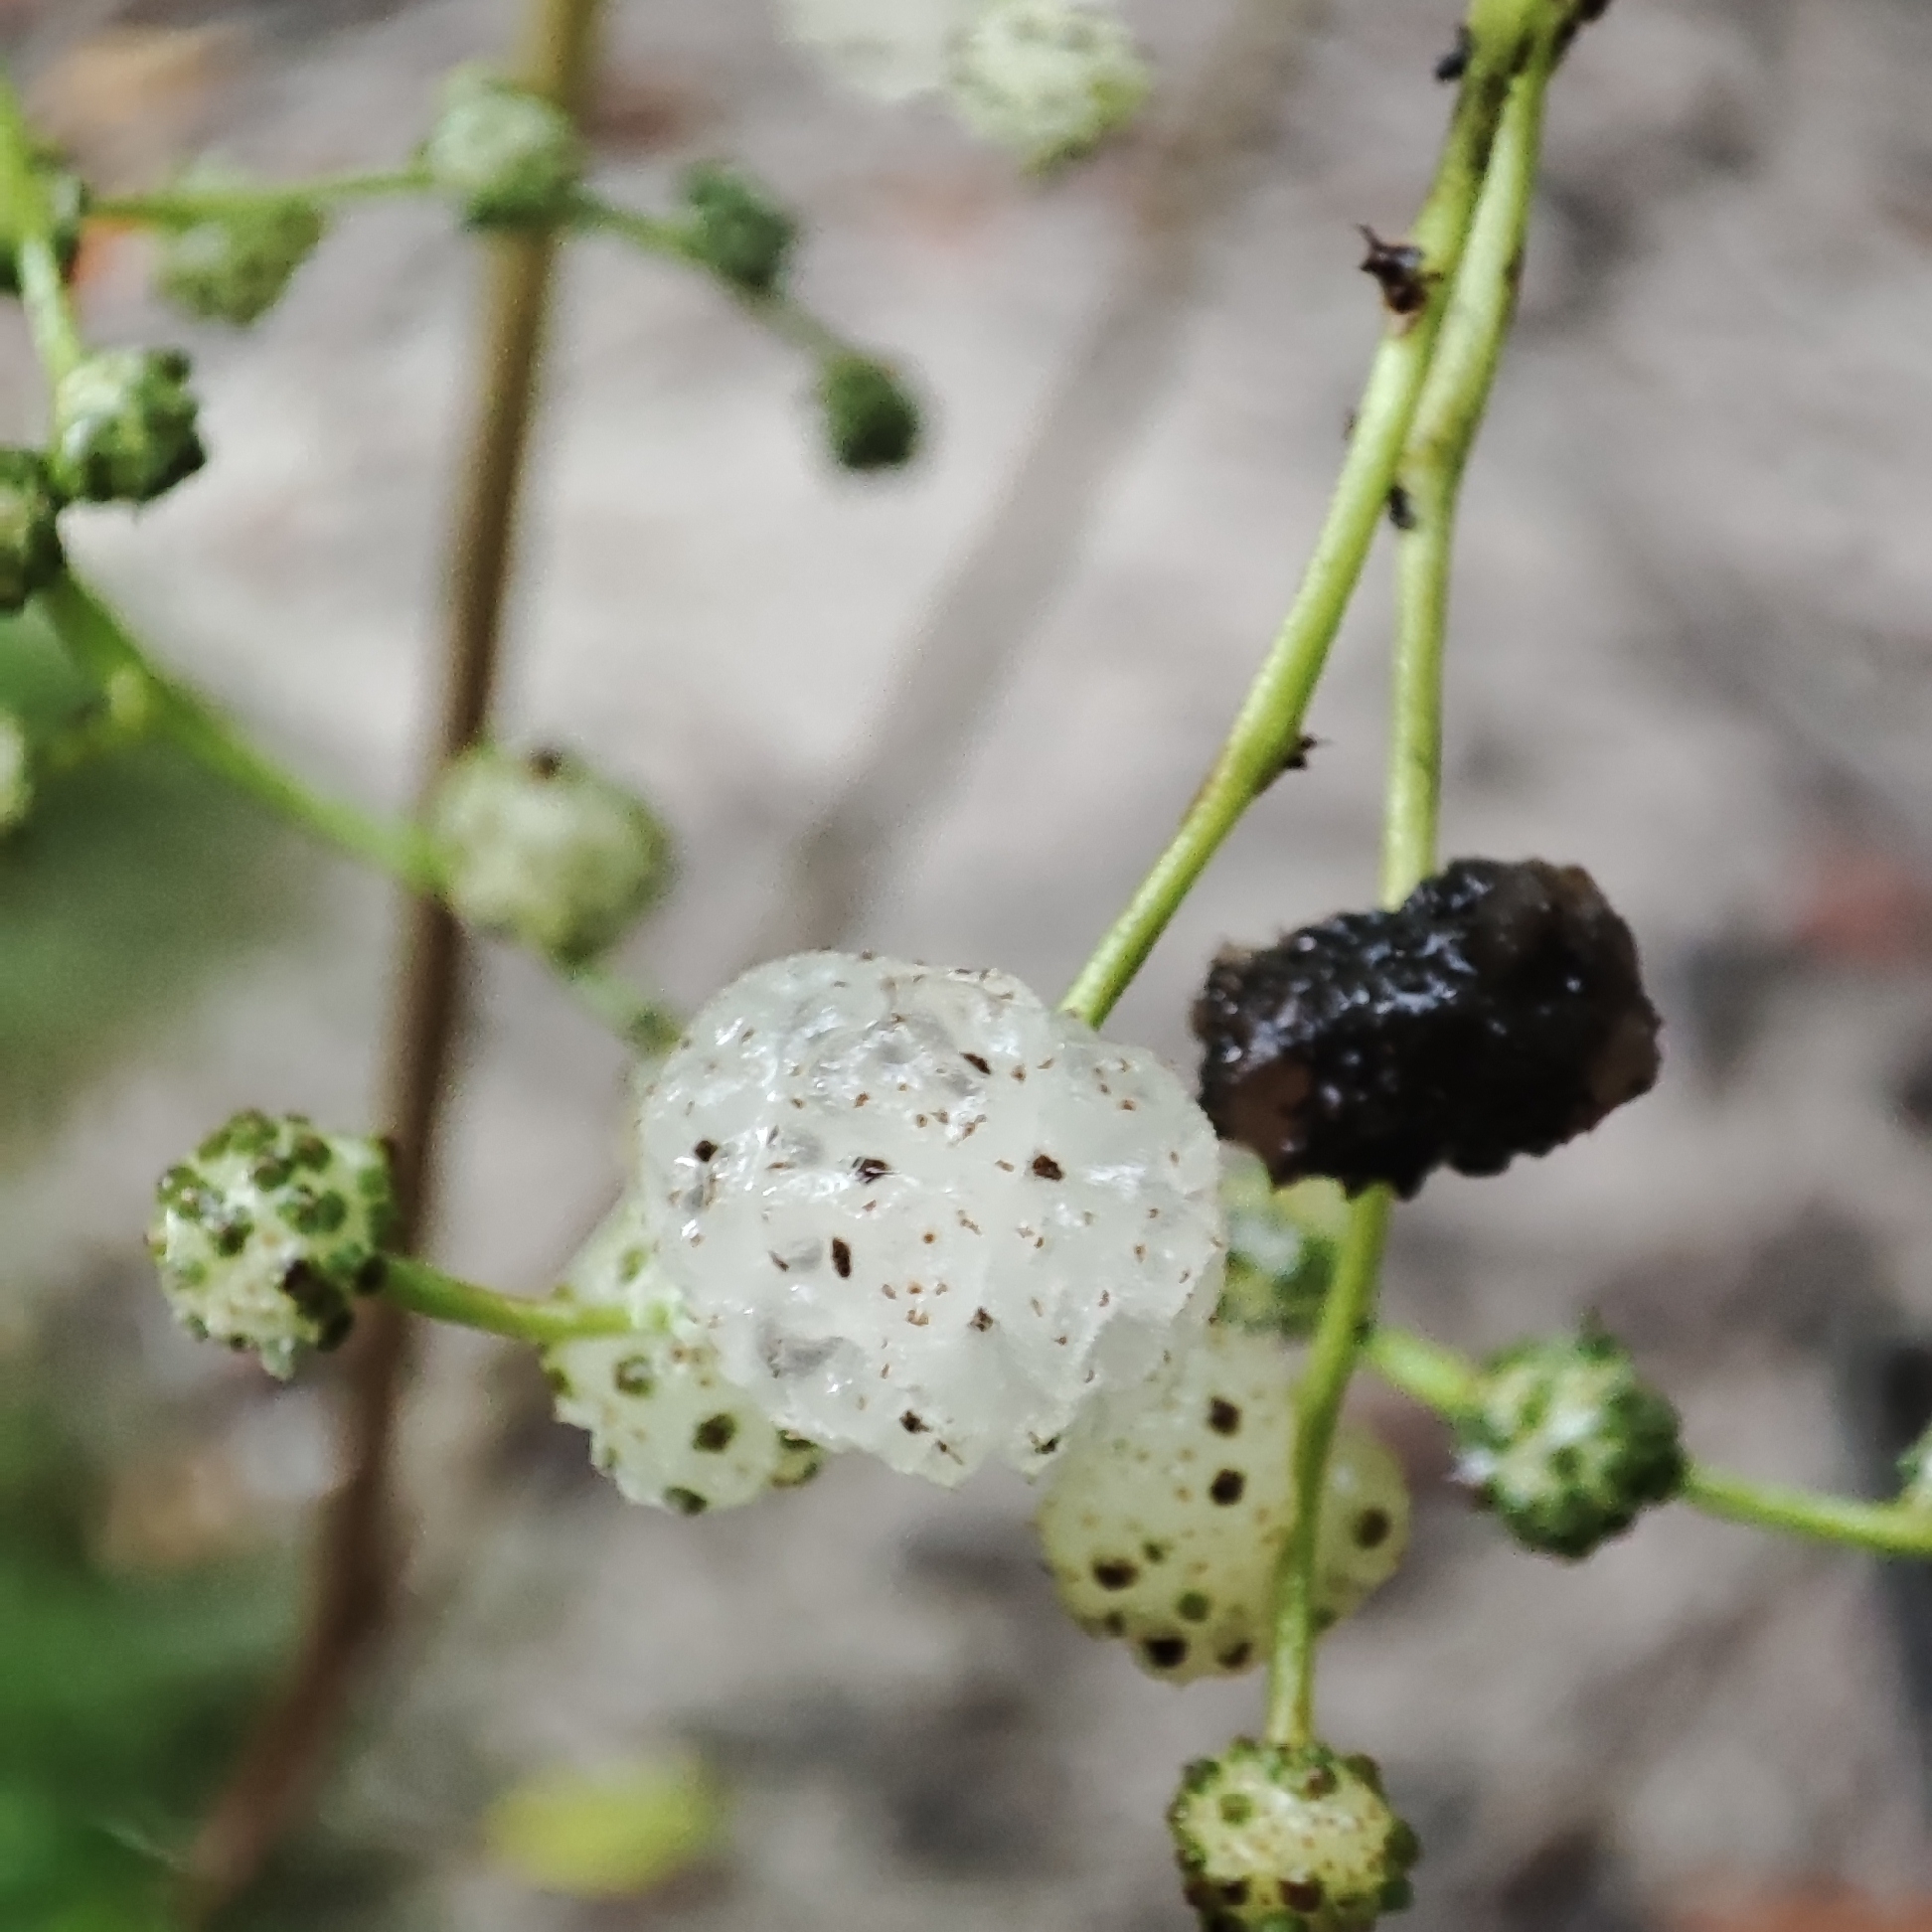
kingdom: Plantae
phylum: Tracheophyta
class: Magnoliopsida
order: Rosales
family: Urticaceae
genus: Pipturus
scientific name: Pipturus argenteus
